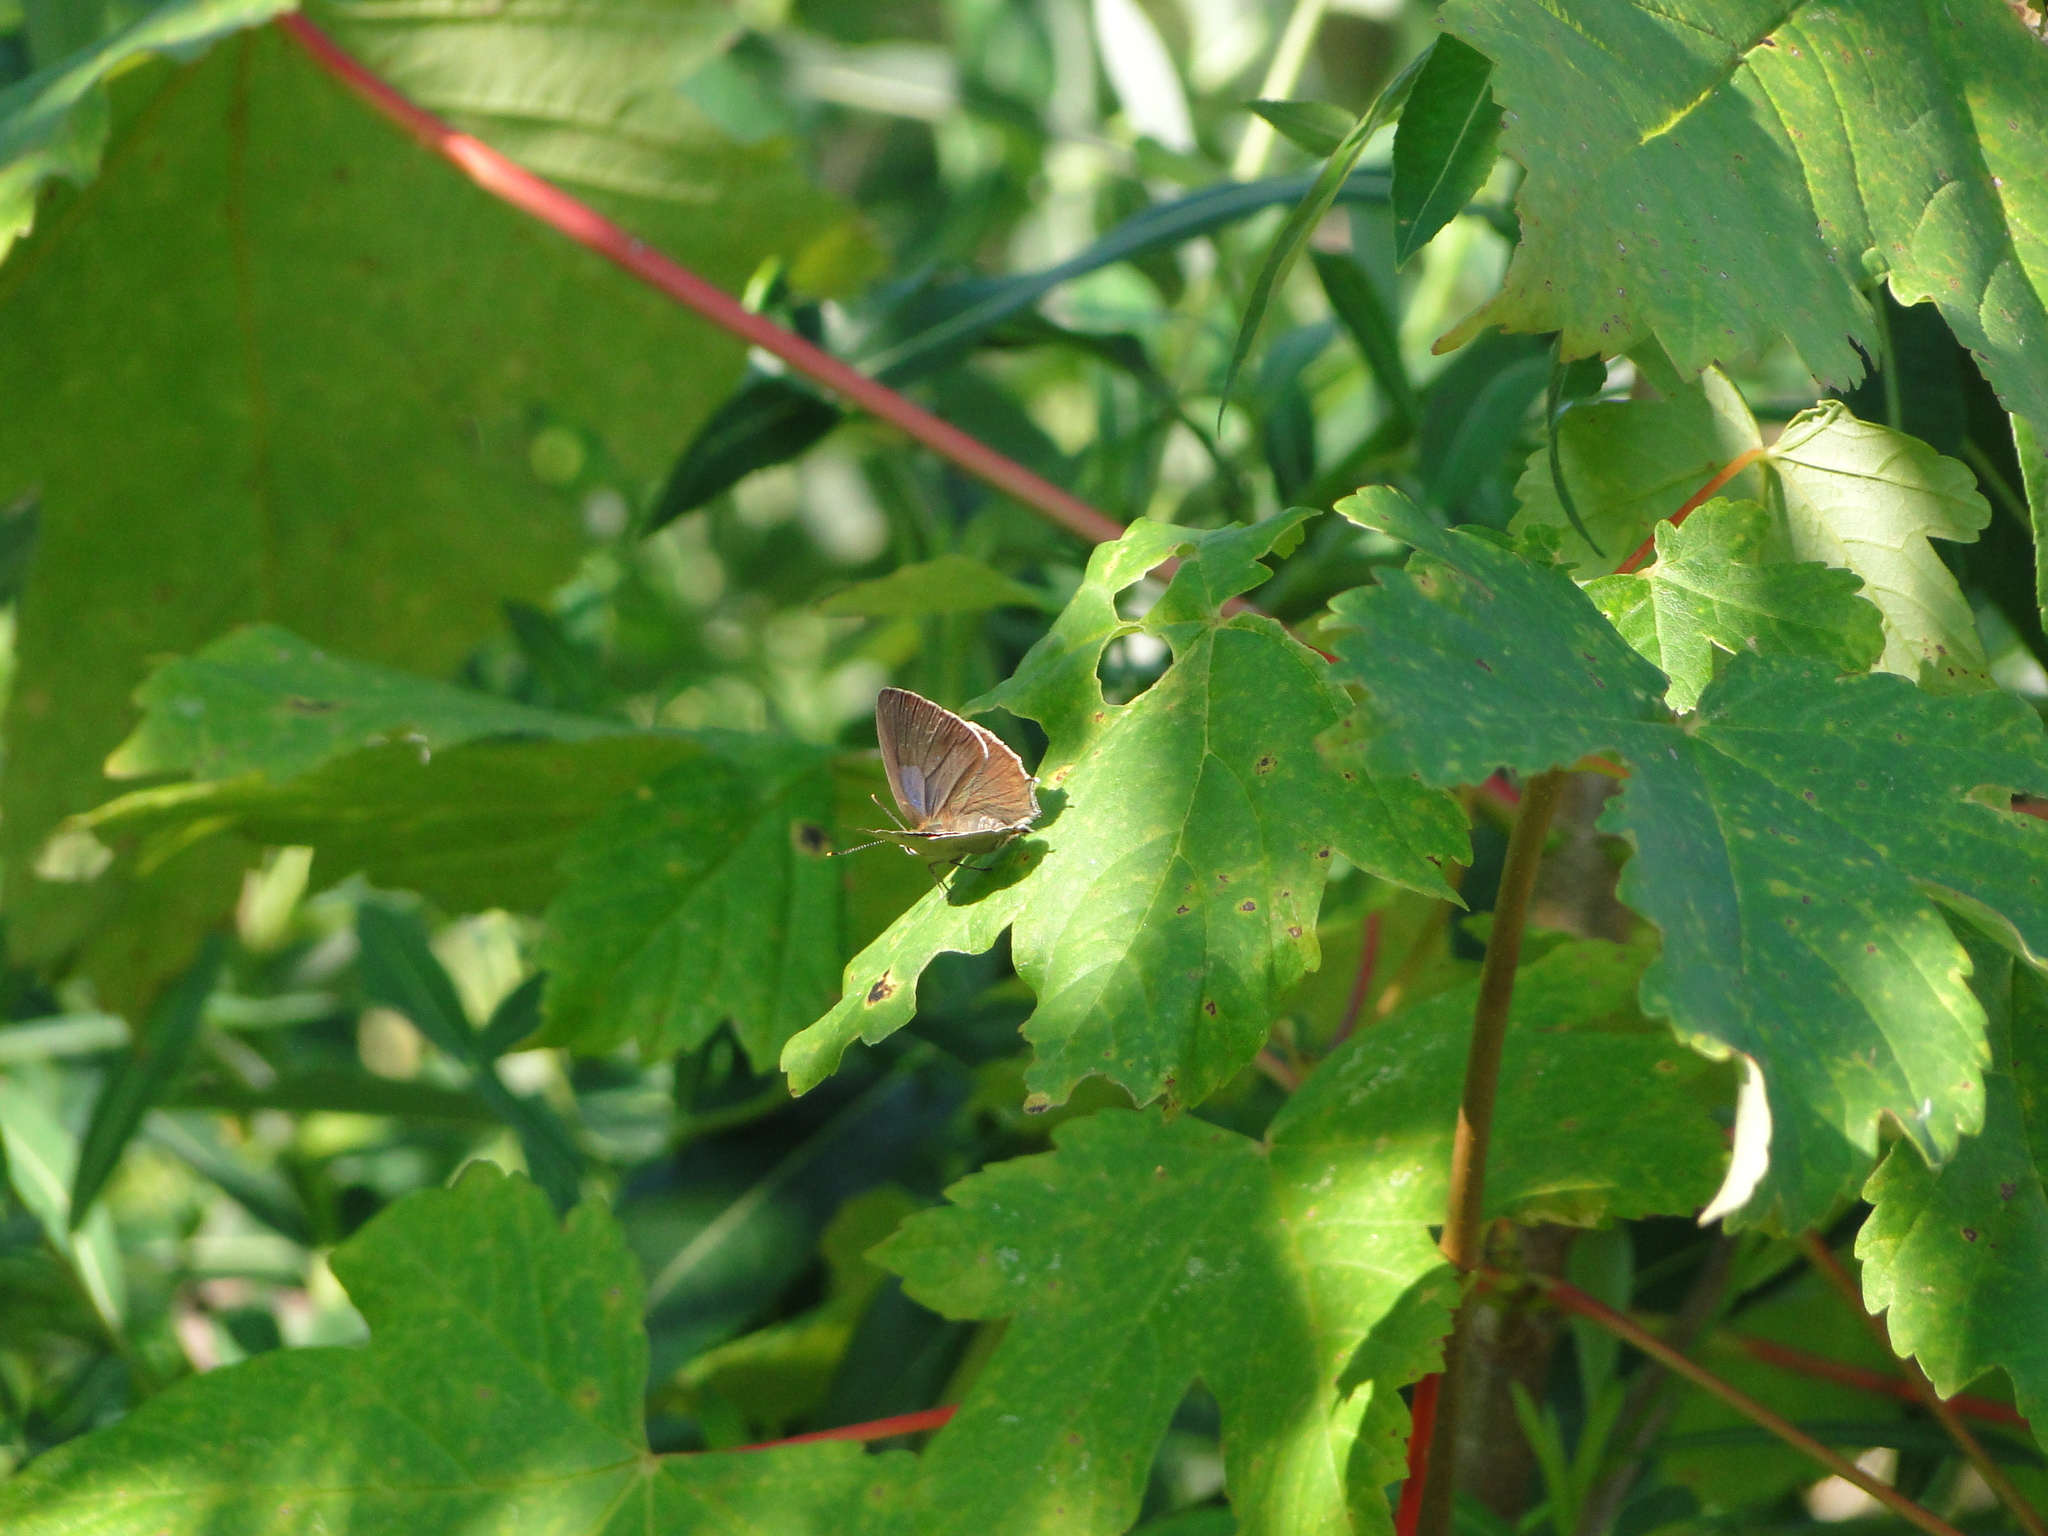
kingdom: Animalia
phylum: Arthropoda
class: Insecta
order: Lepidoptera
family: Lycaenidae
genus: Quercusia
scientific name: Quercusia quercus
